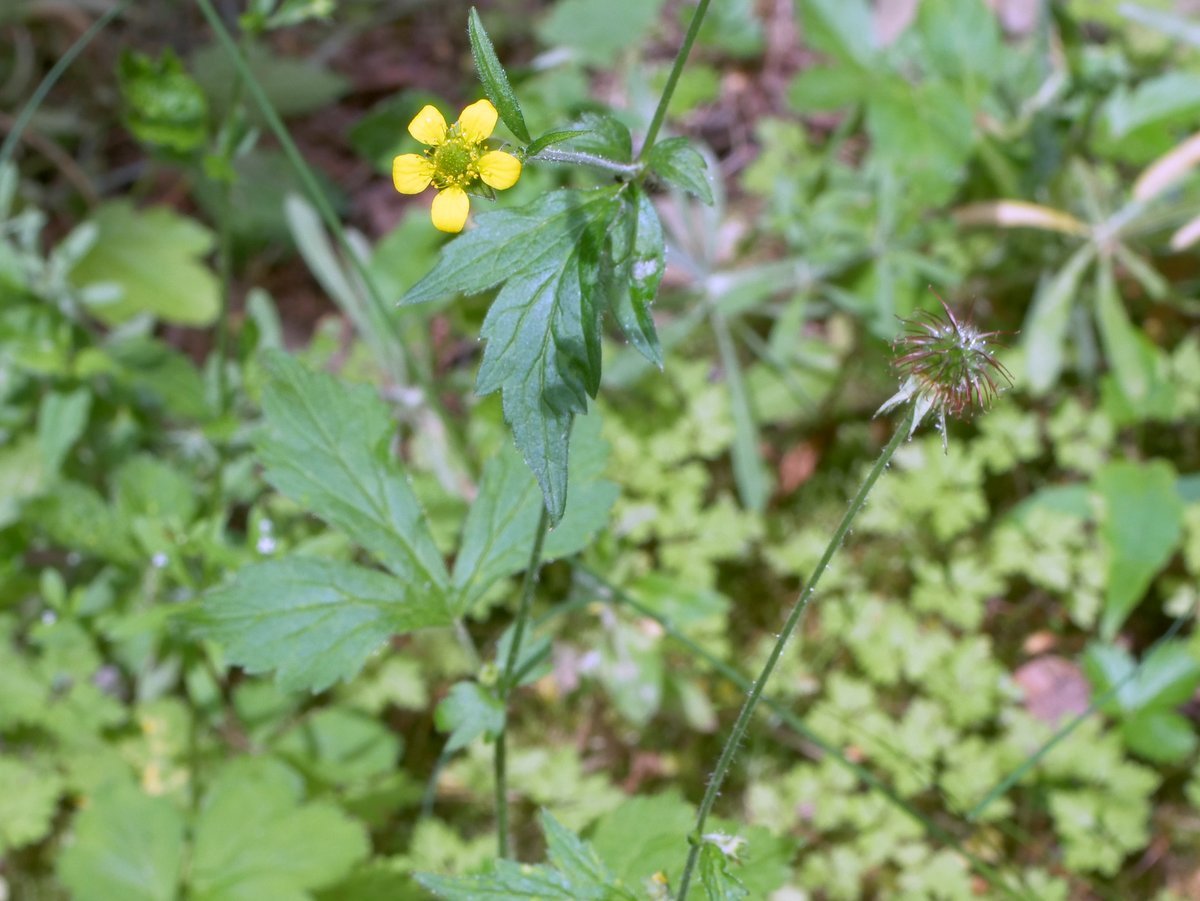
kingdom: Plantae
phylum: Tracheophyta
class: Magnoliopsida
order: Rosales
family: Rosaceae
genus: Geum
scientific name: Geum urbanum
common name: Wood avens
